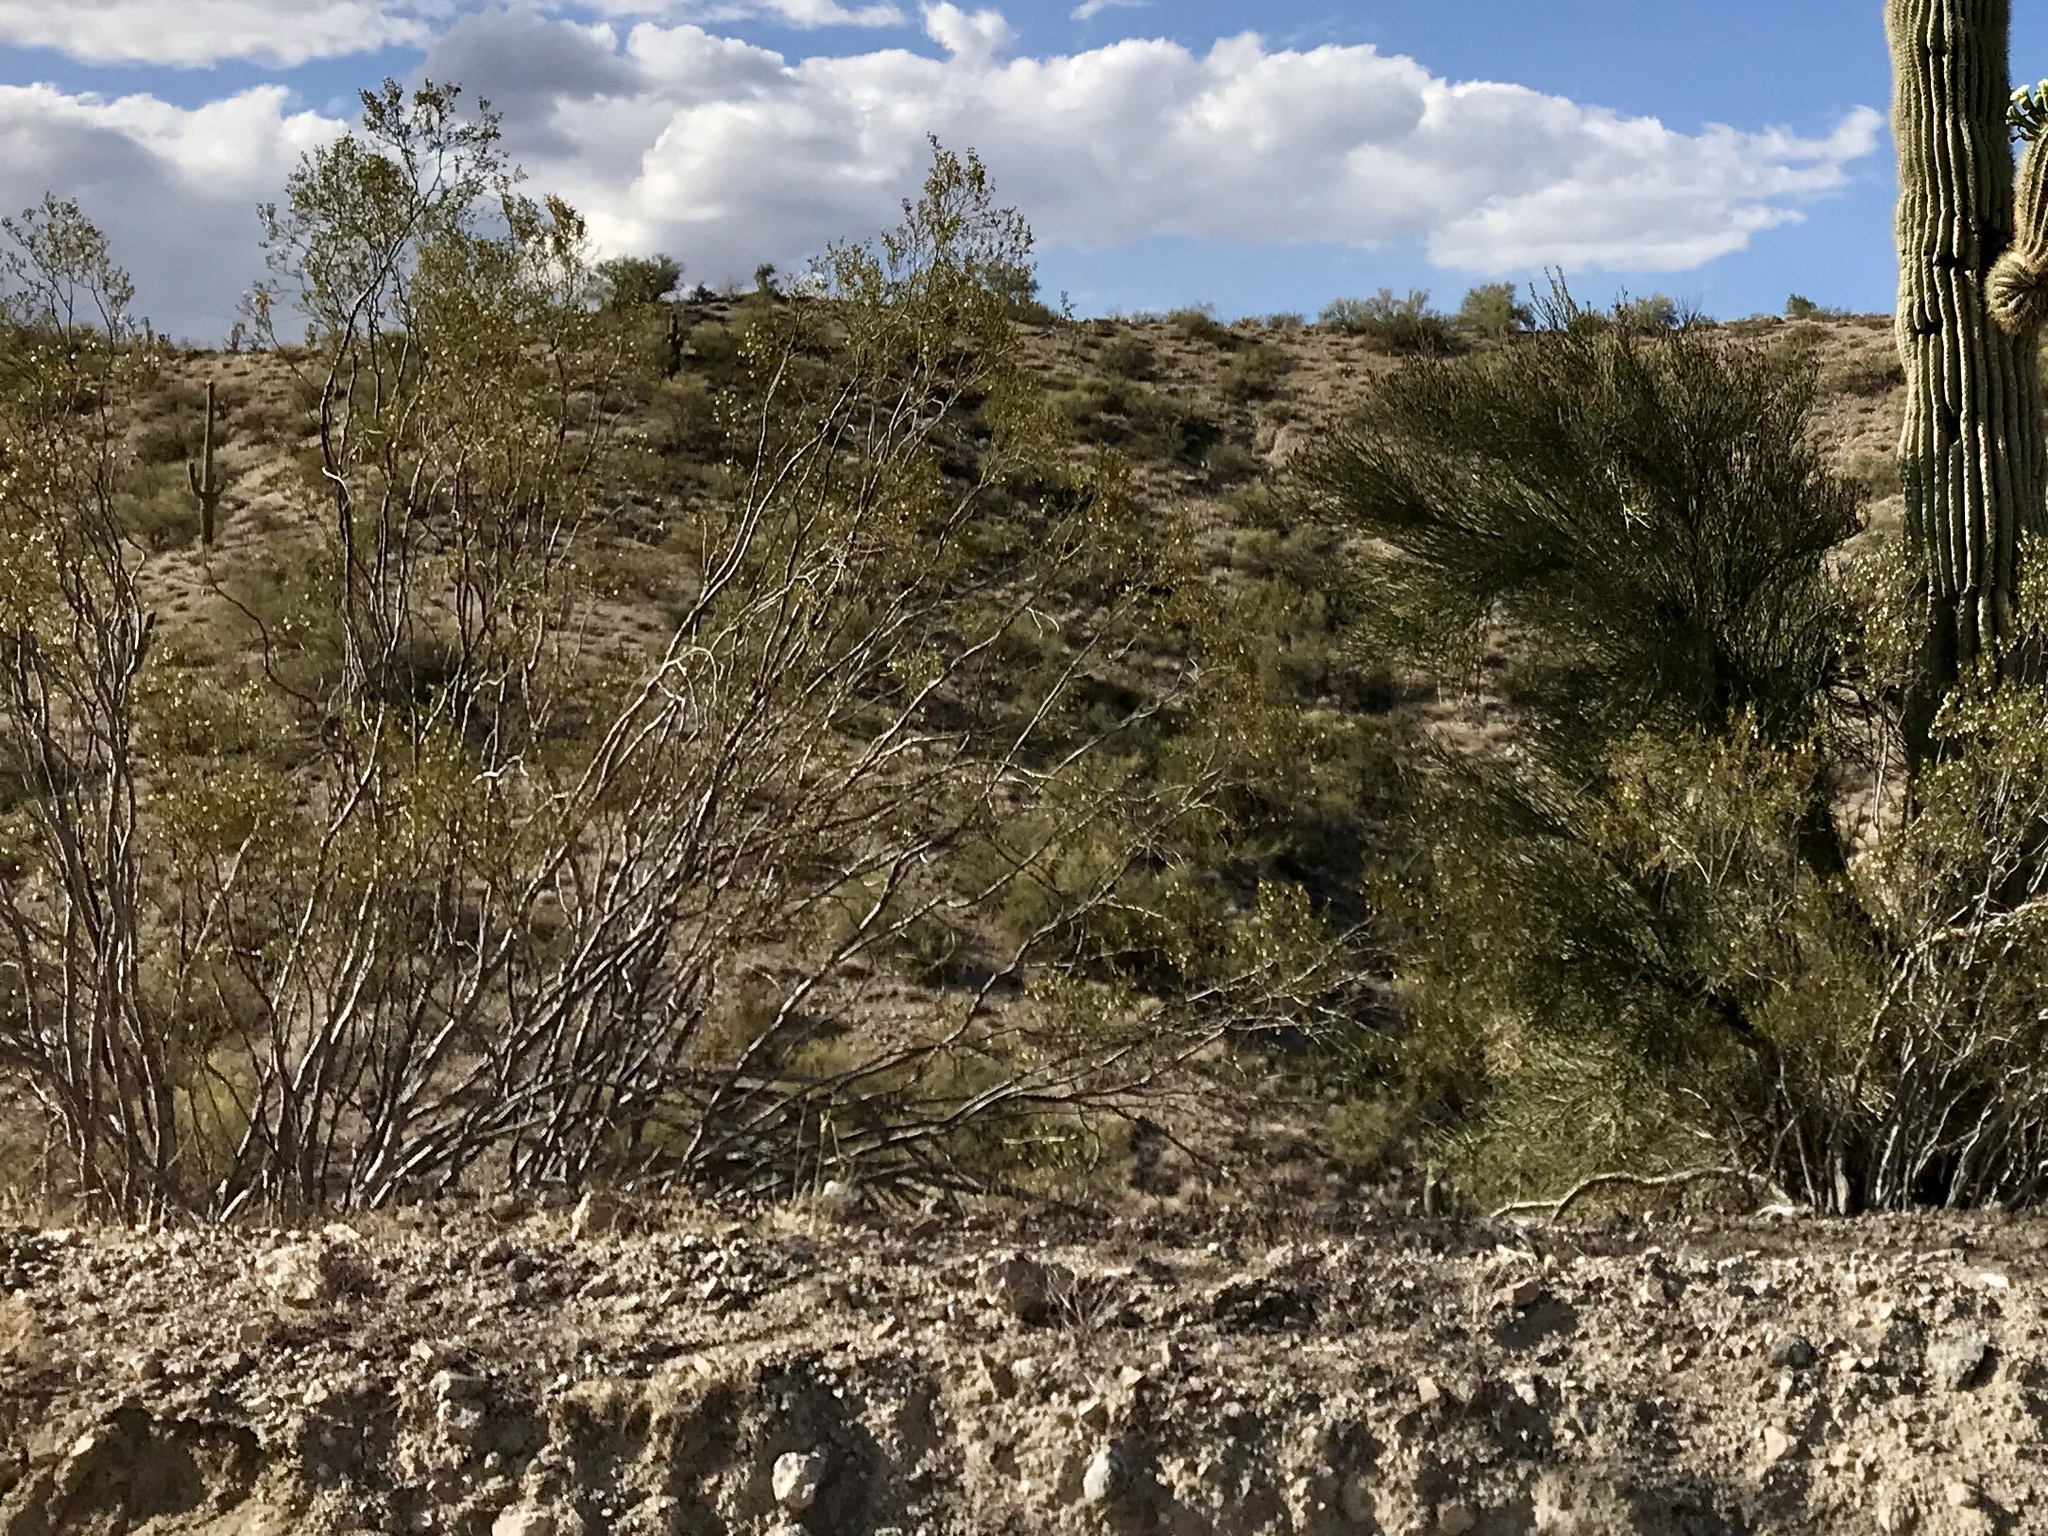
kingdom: Plantae
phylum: Tracheophyta
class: Magnoliopsida
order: Zygophyllales
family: Zygophyllaceae
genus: Larrea
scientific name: Larrea tridentata
